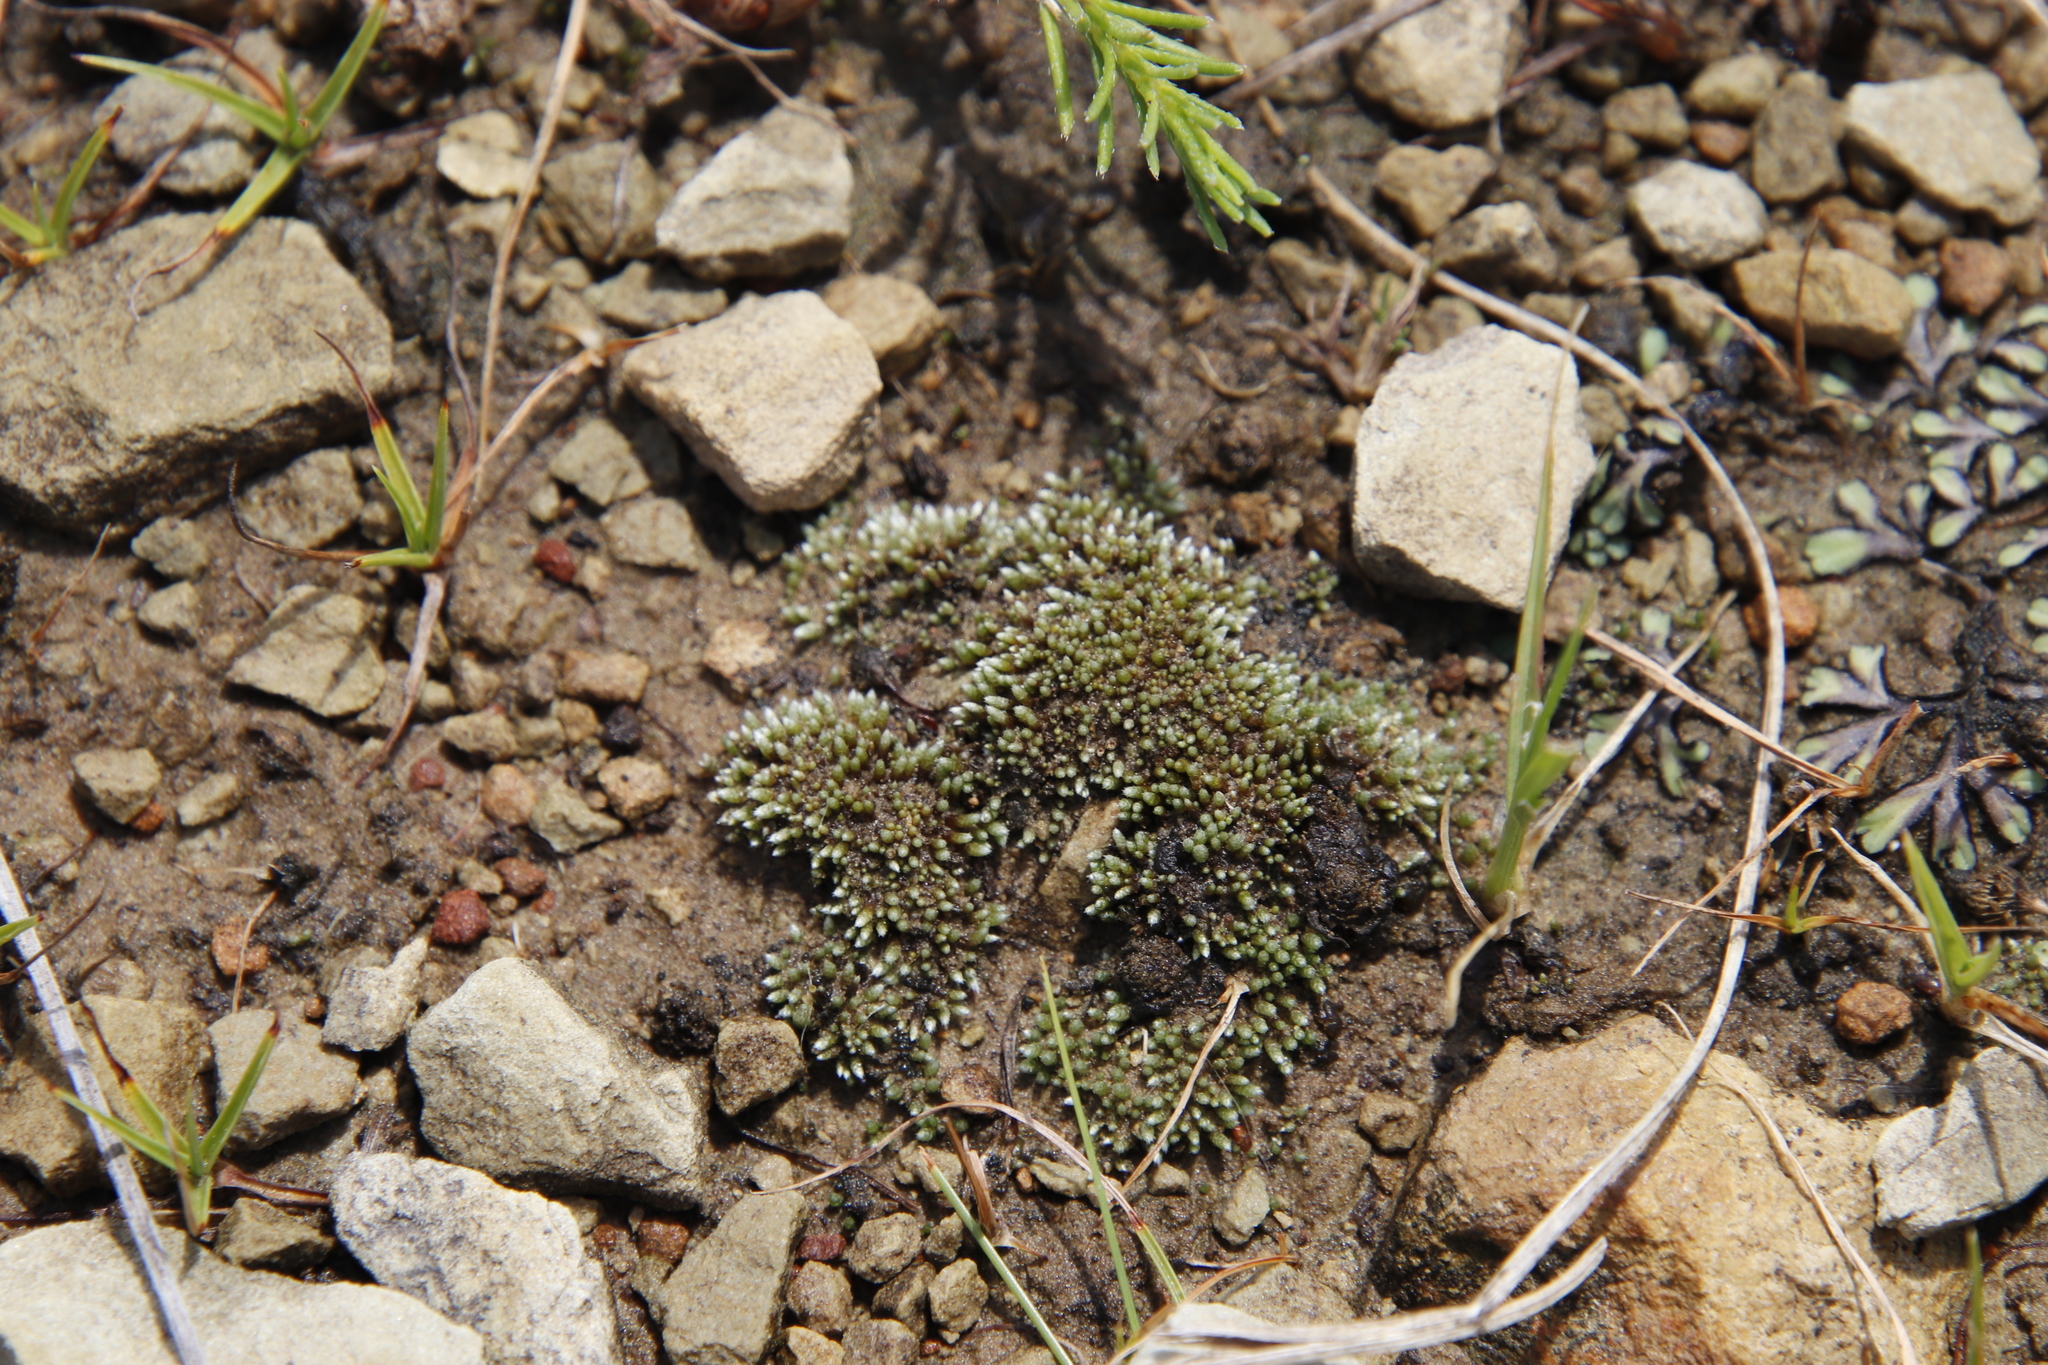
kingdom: Plantae
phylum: Bryophyta
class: Bryopsida
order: Bryales
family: Bryaceae
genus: Bryum
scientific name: Bryum argenteum
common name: Silver-moss
